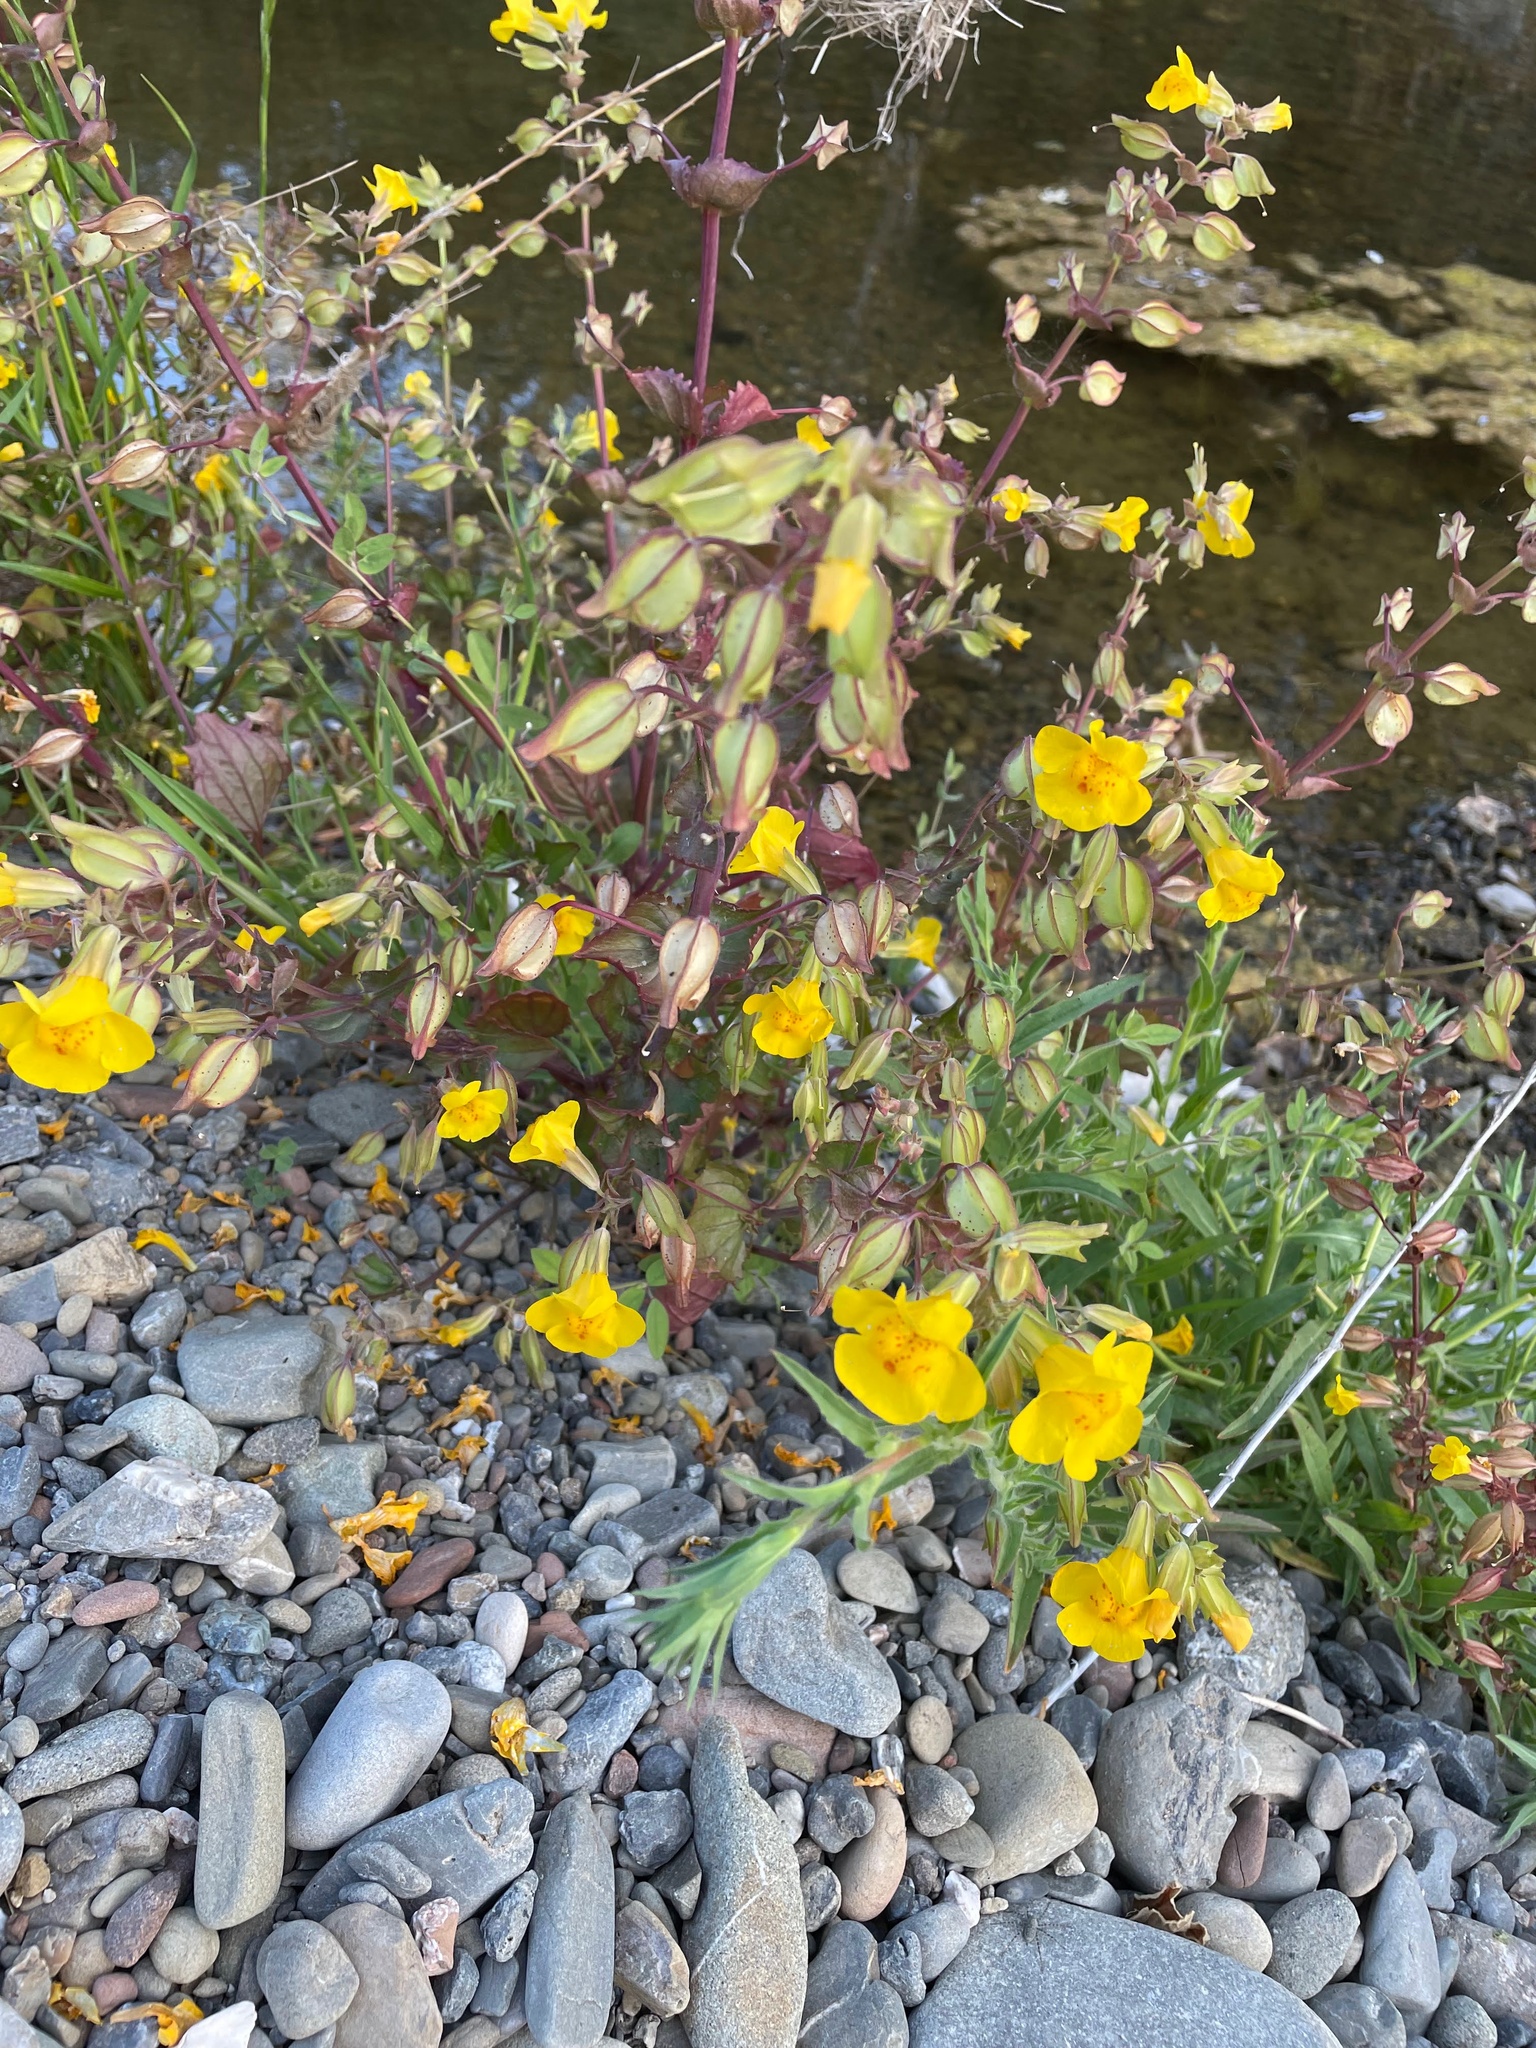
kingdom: Plantae
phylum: Tracheophyta
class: Magnoliopsida
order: Lamiales
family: Phrymaceae
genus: Erythranthe
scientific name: Erythranthe guttata
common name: Monkeyflower
